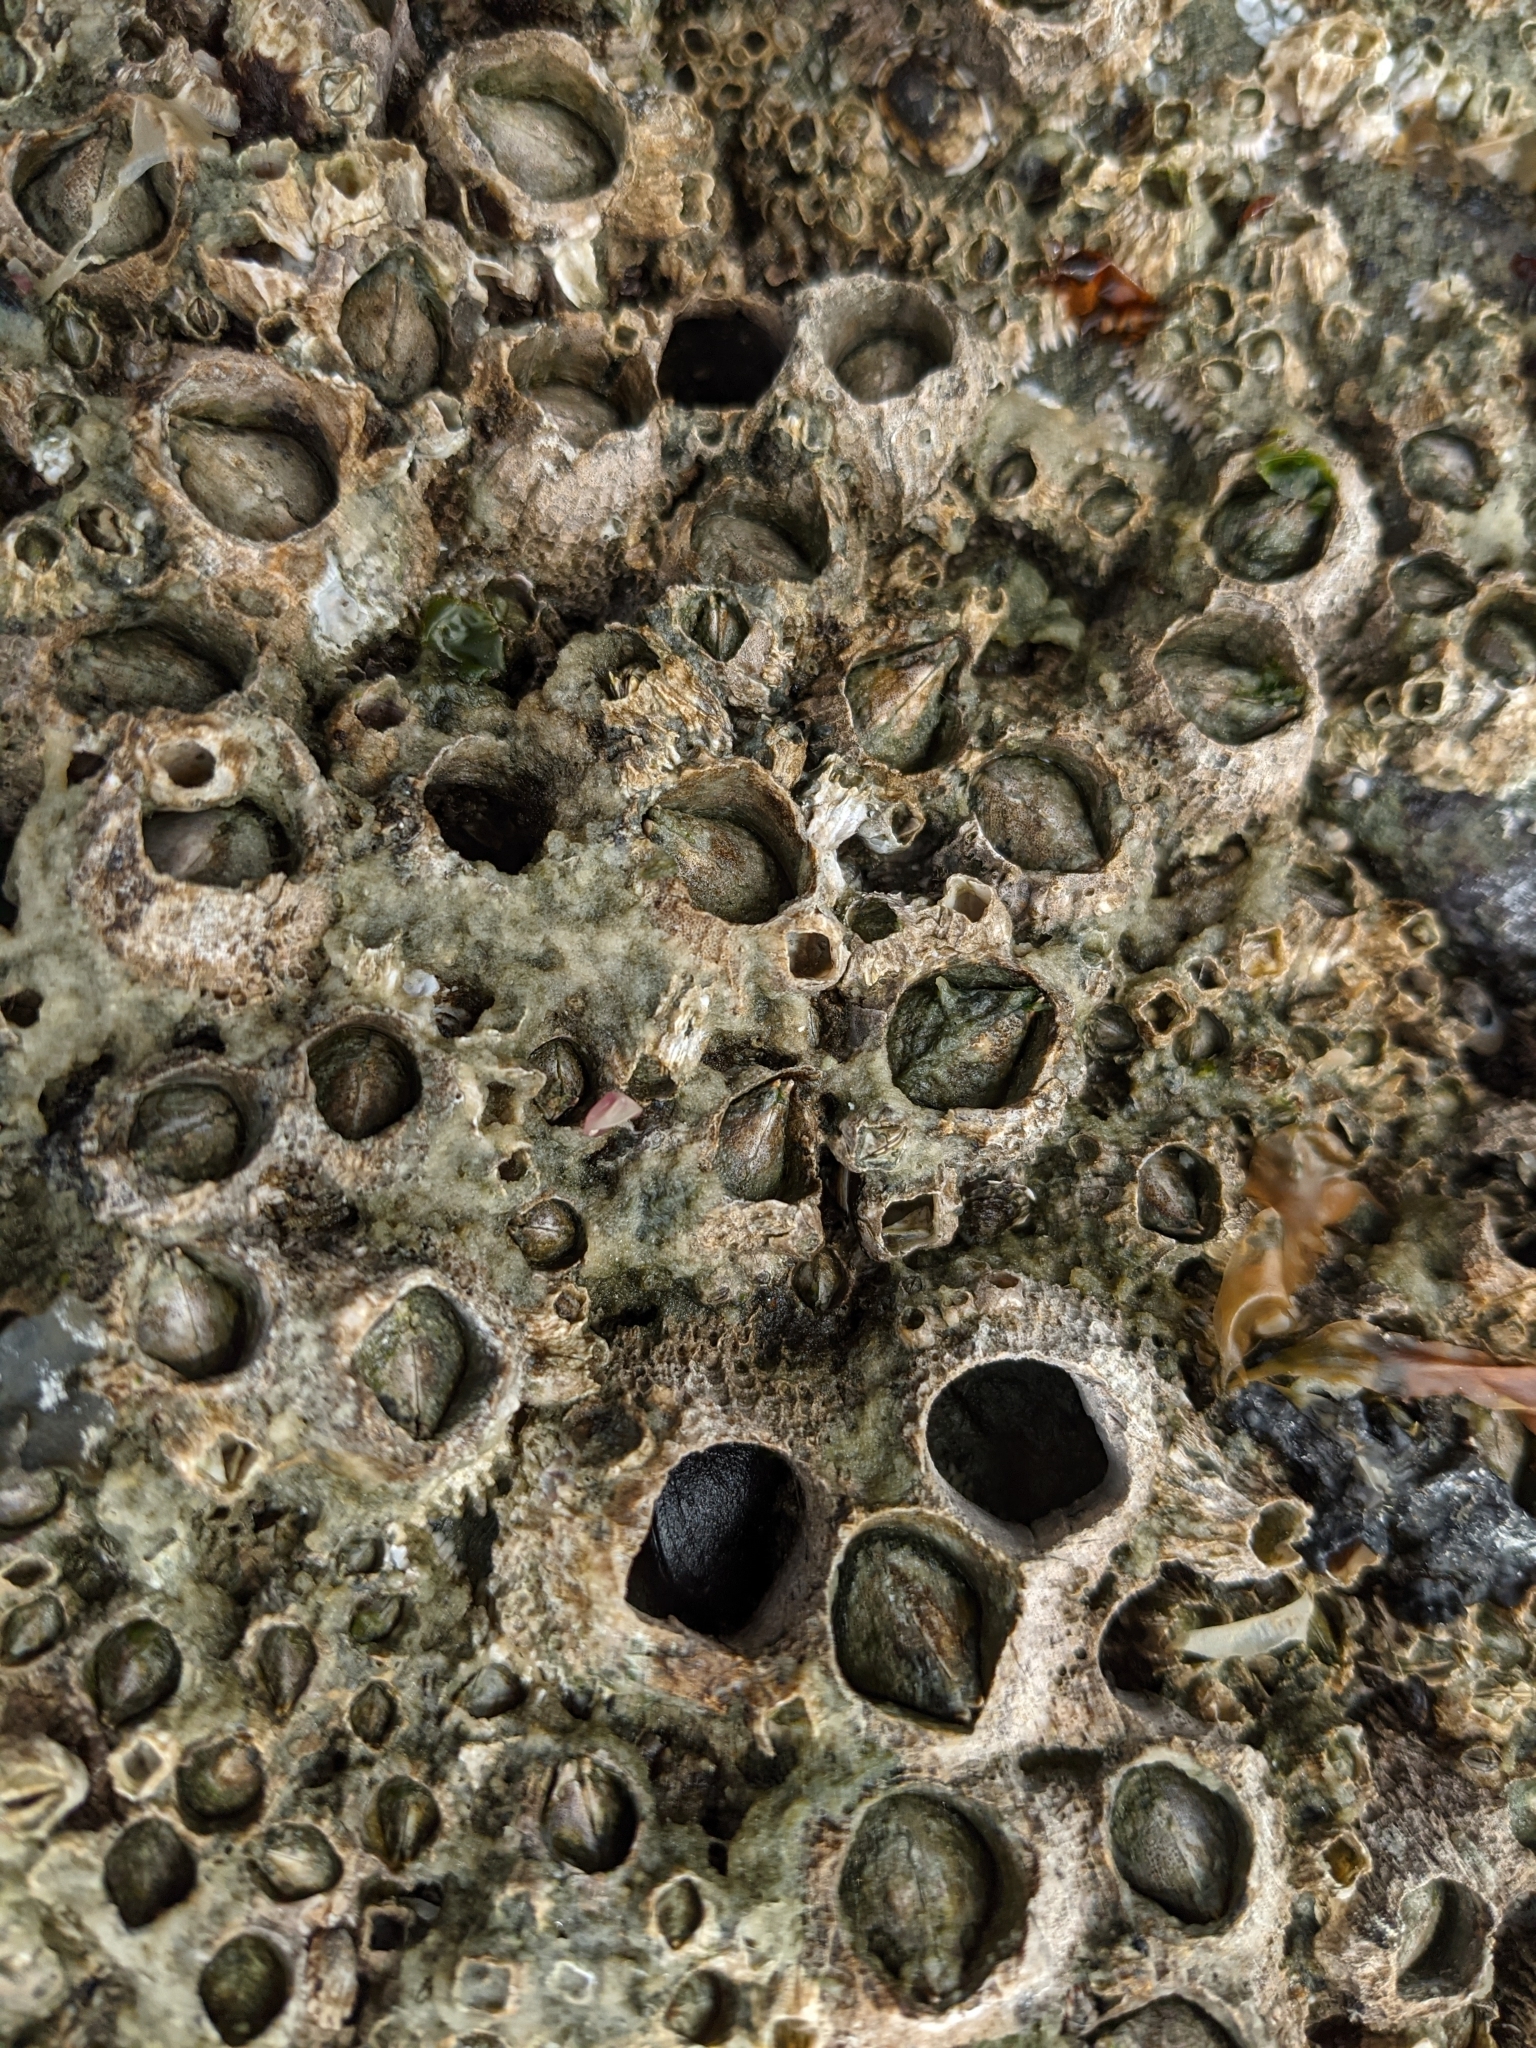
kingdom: Animalia
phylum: Arthropoda
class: Maxillopoda
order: Sessilia
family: Archaeobalanidae
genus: Semibalanus
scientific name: Semibalanus cariosus
